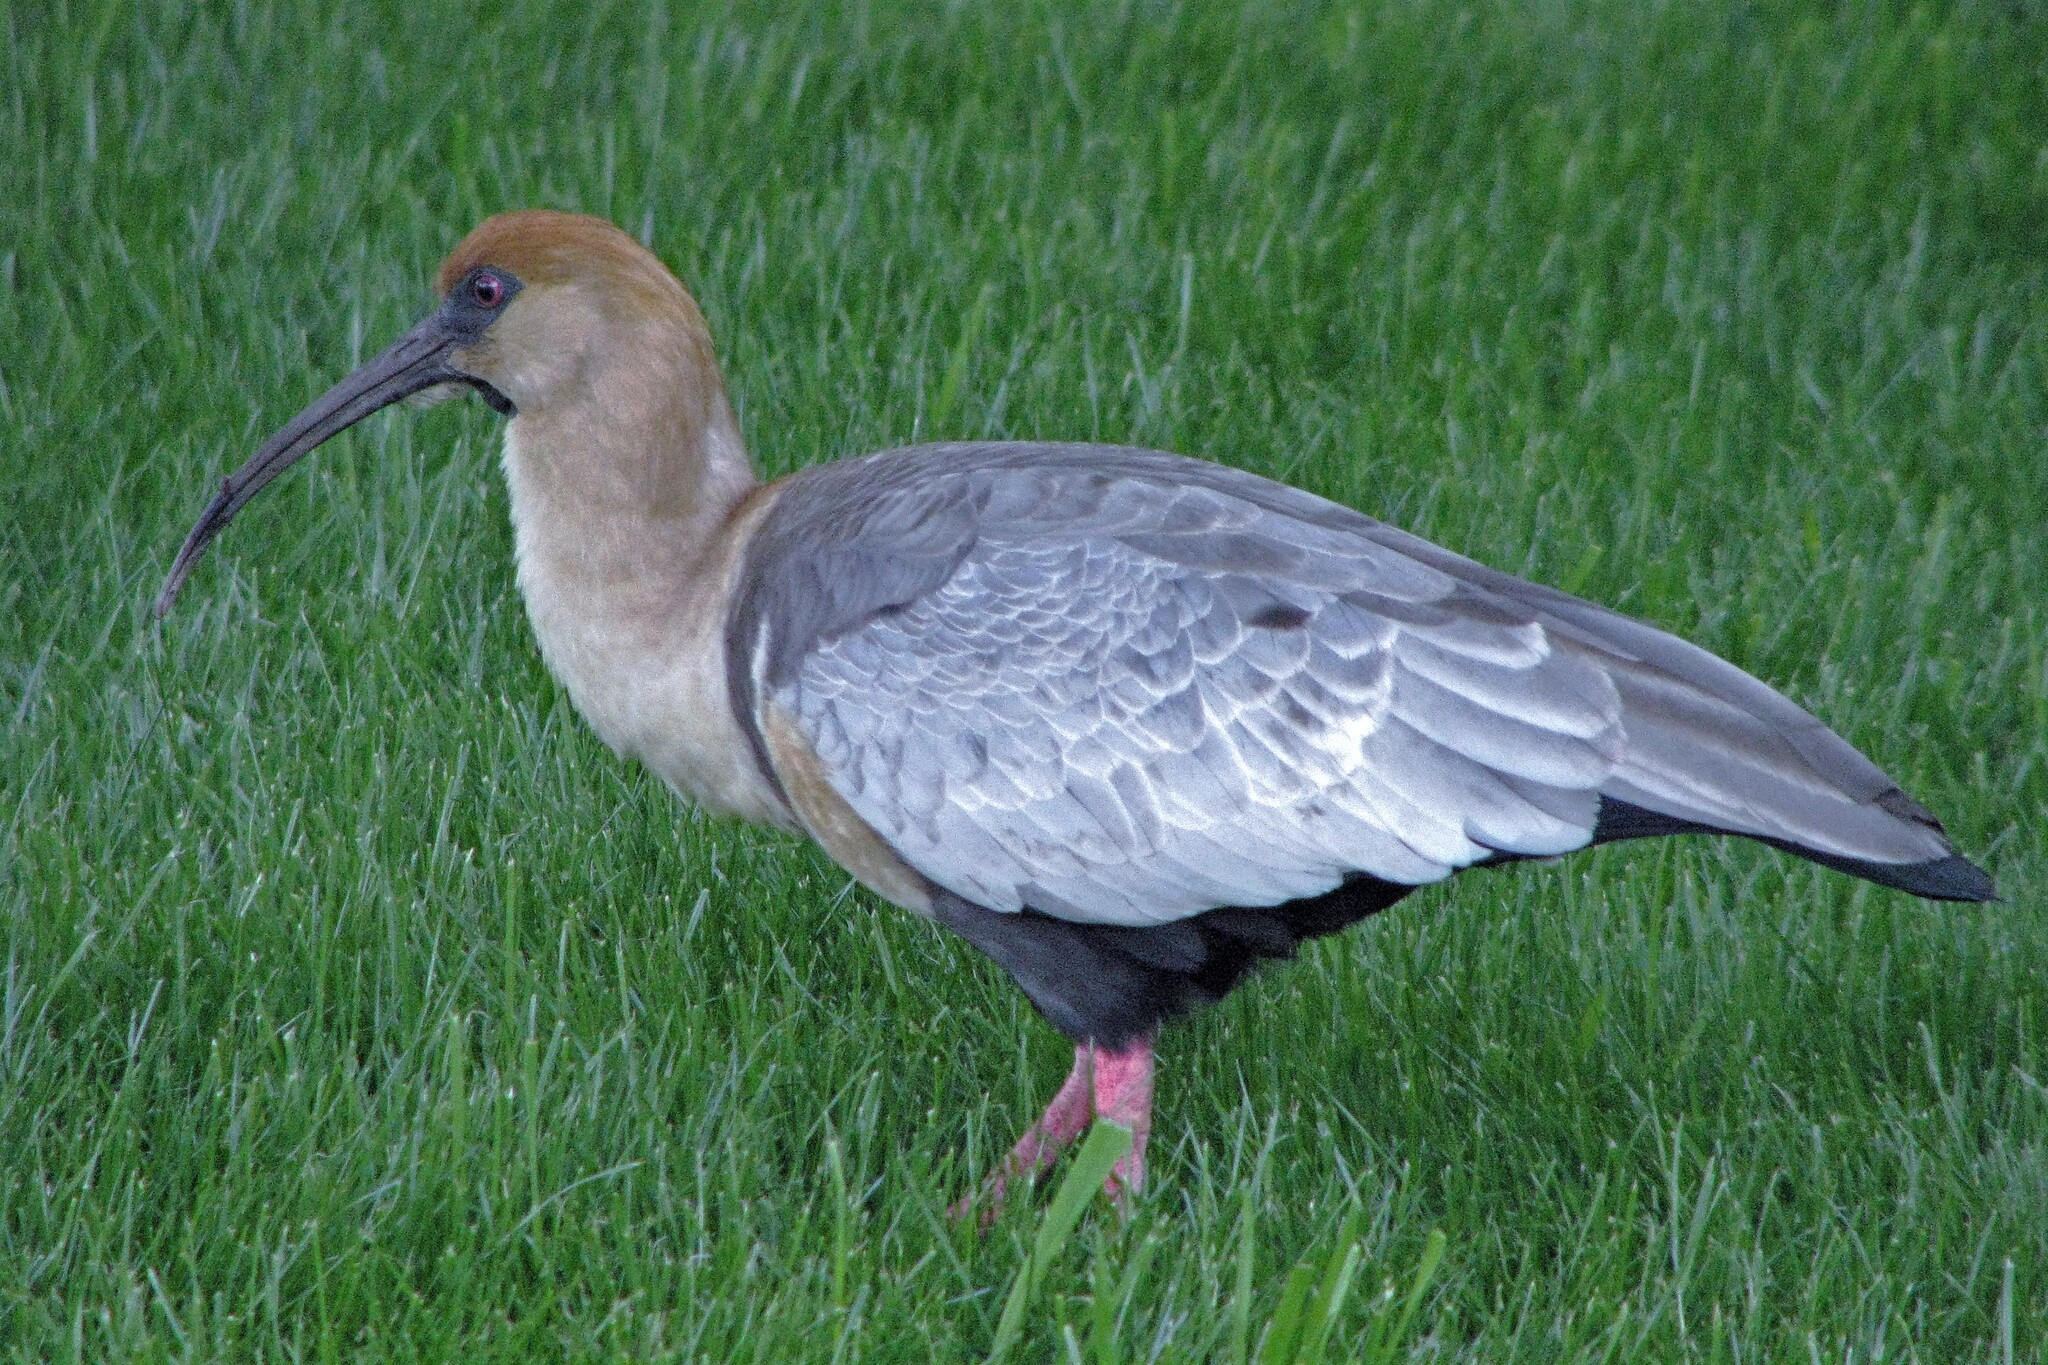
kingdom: Animalia
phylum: Chordata
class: Aves
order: Pelecaniformes
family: Threskiornithidae
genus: Theristicus
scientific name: Theristicus melanopis
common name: Black-faced ibis
